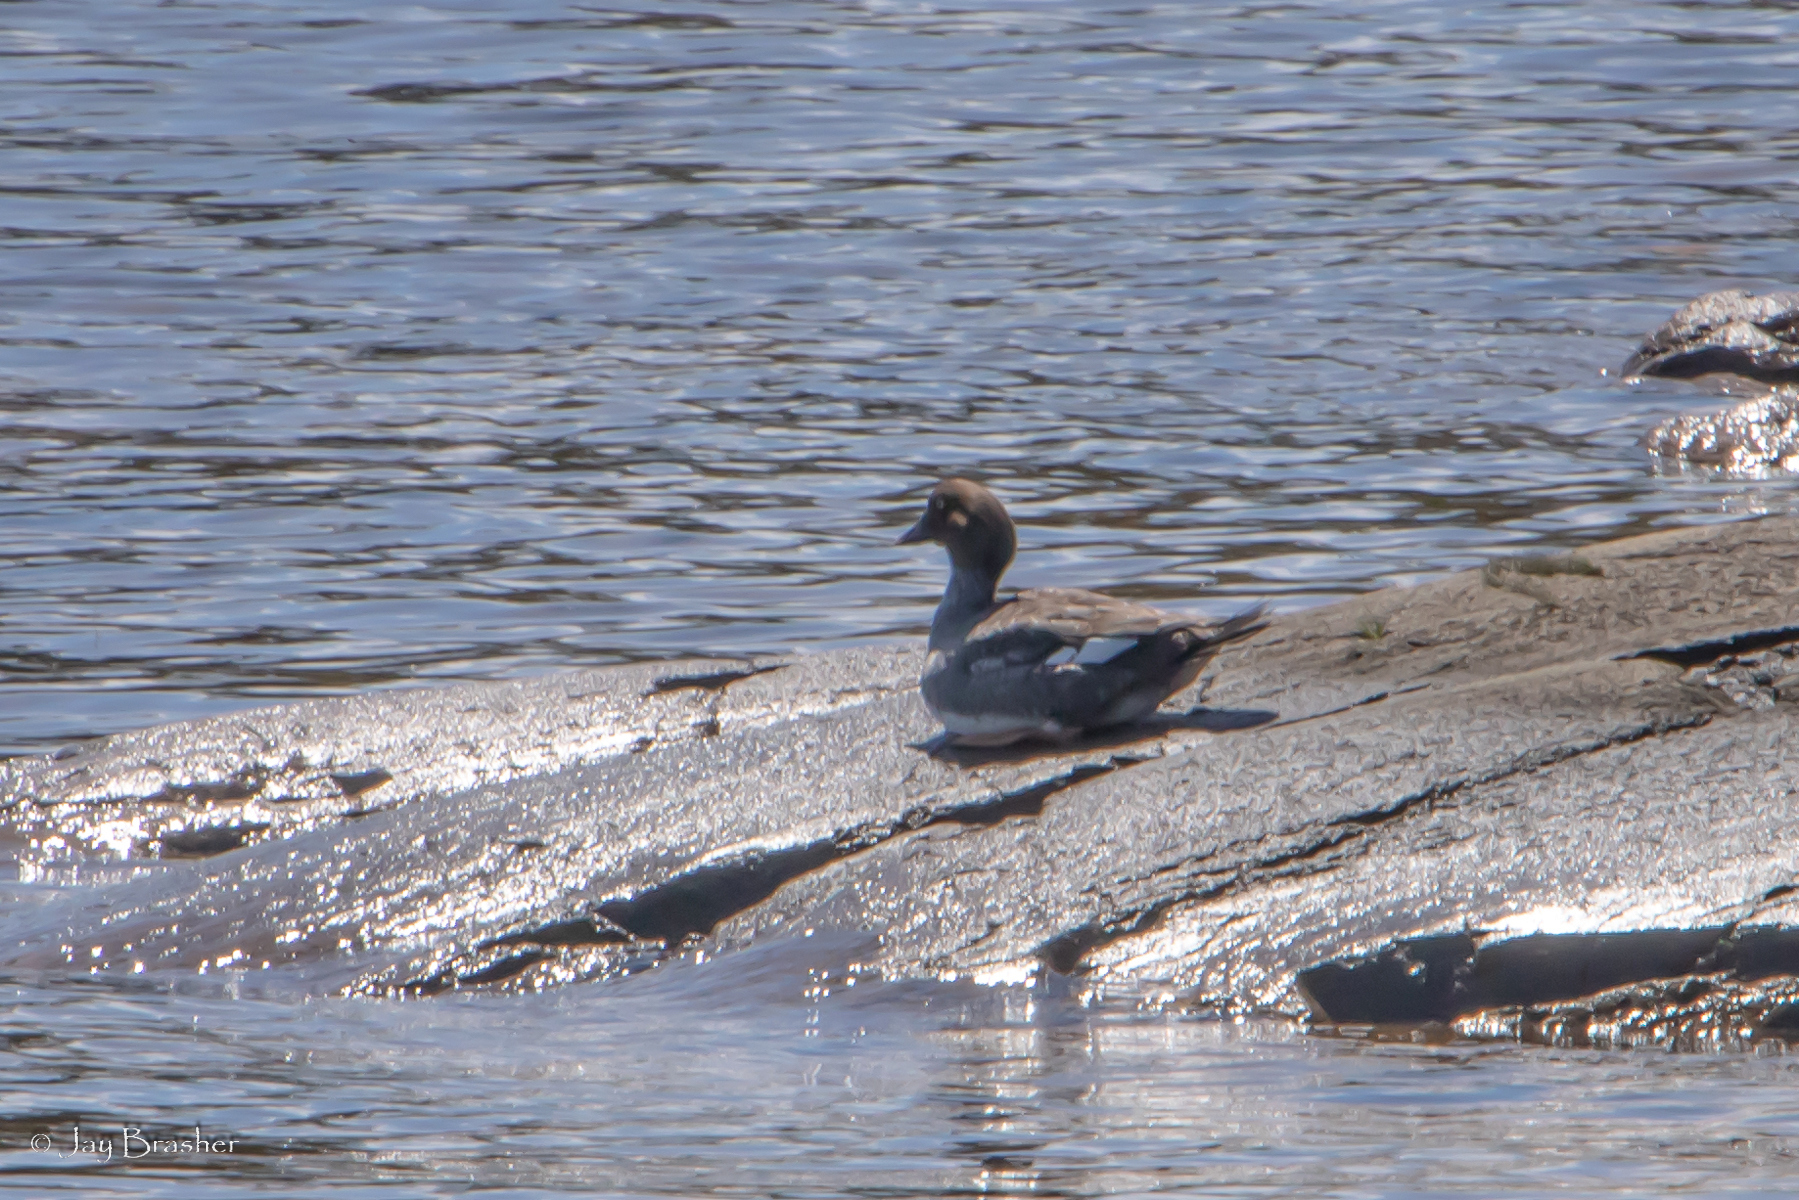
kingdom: Animalia
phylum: Chordata
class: Aves
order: Anseriformes
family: Anatidae
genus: Bucephala
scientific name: Bucephala clangula
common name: Common goldeneye
